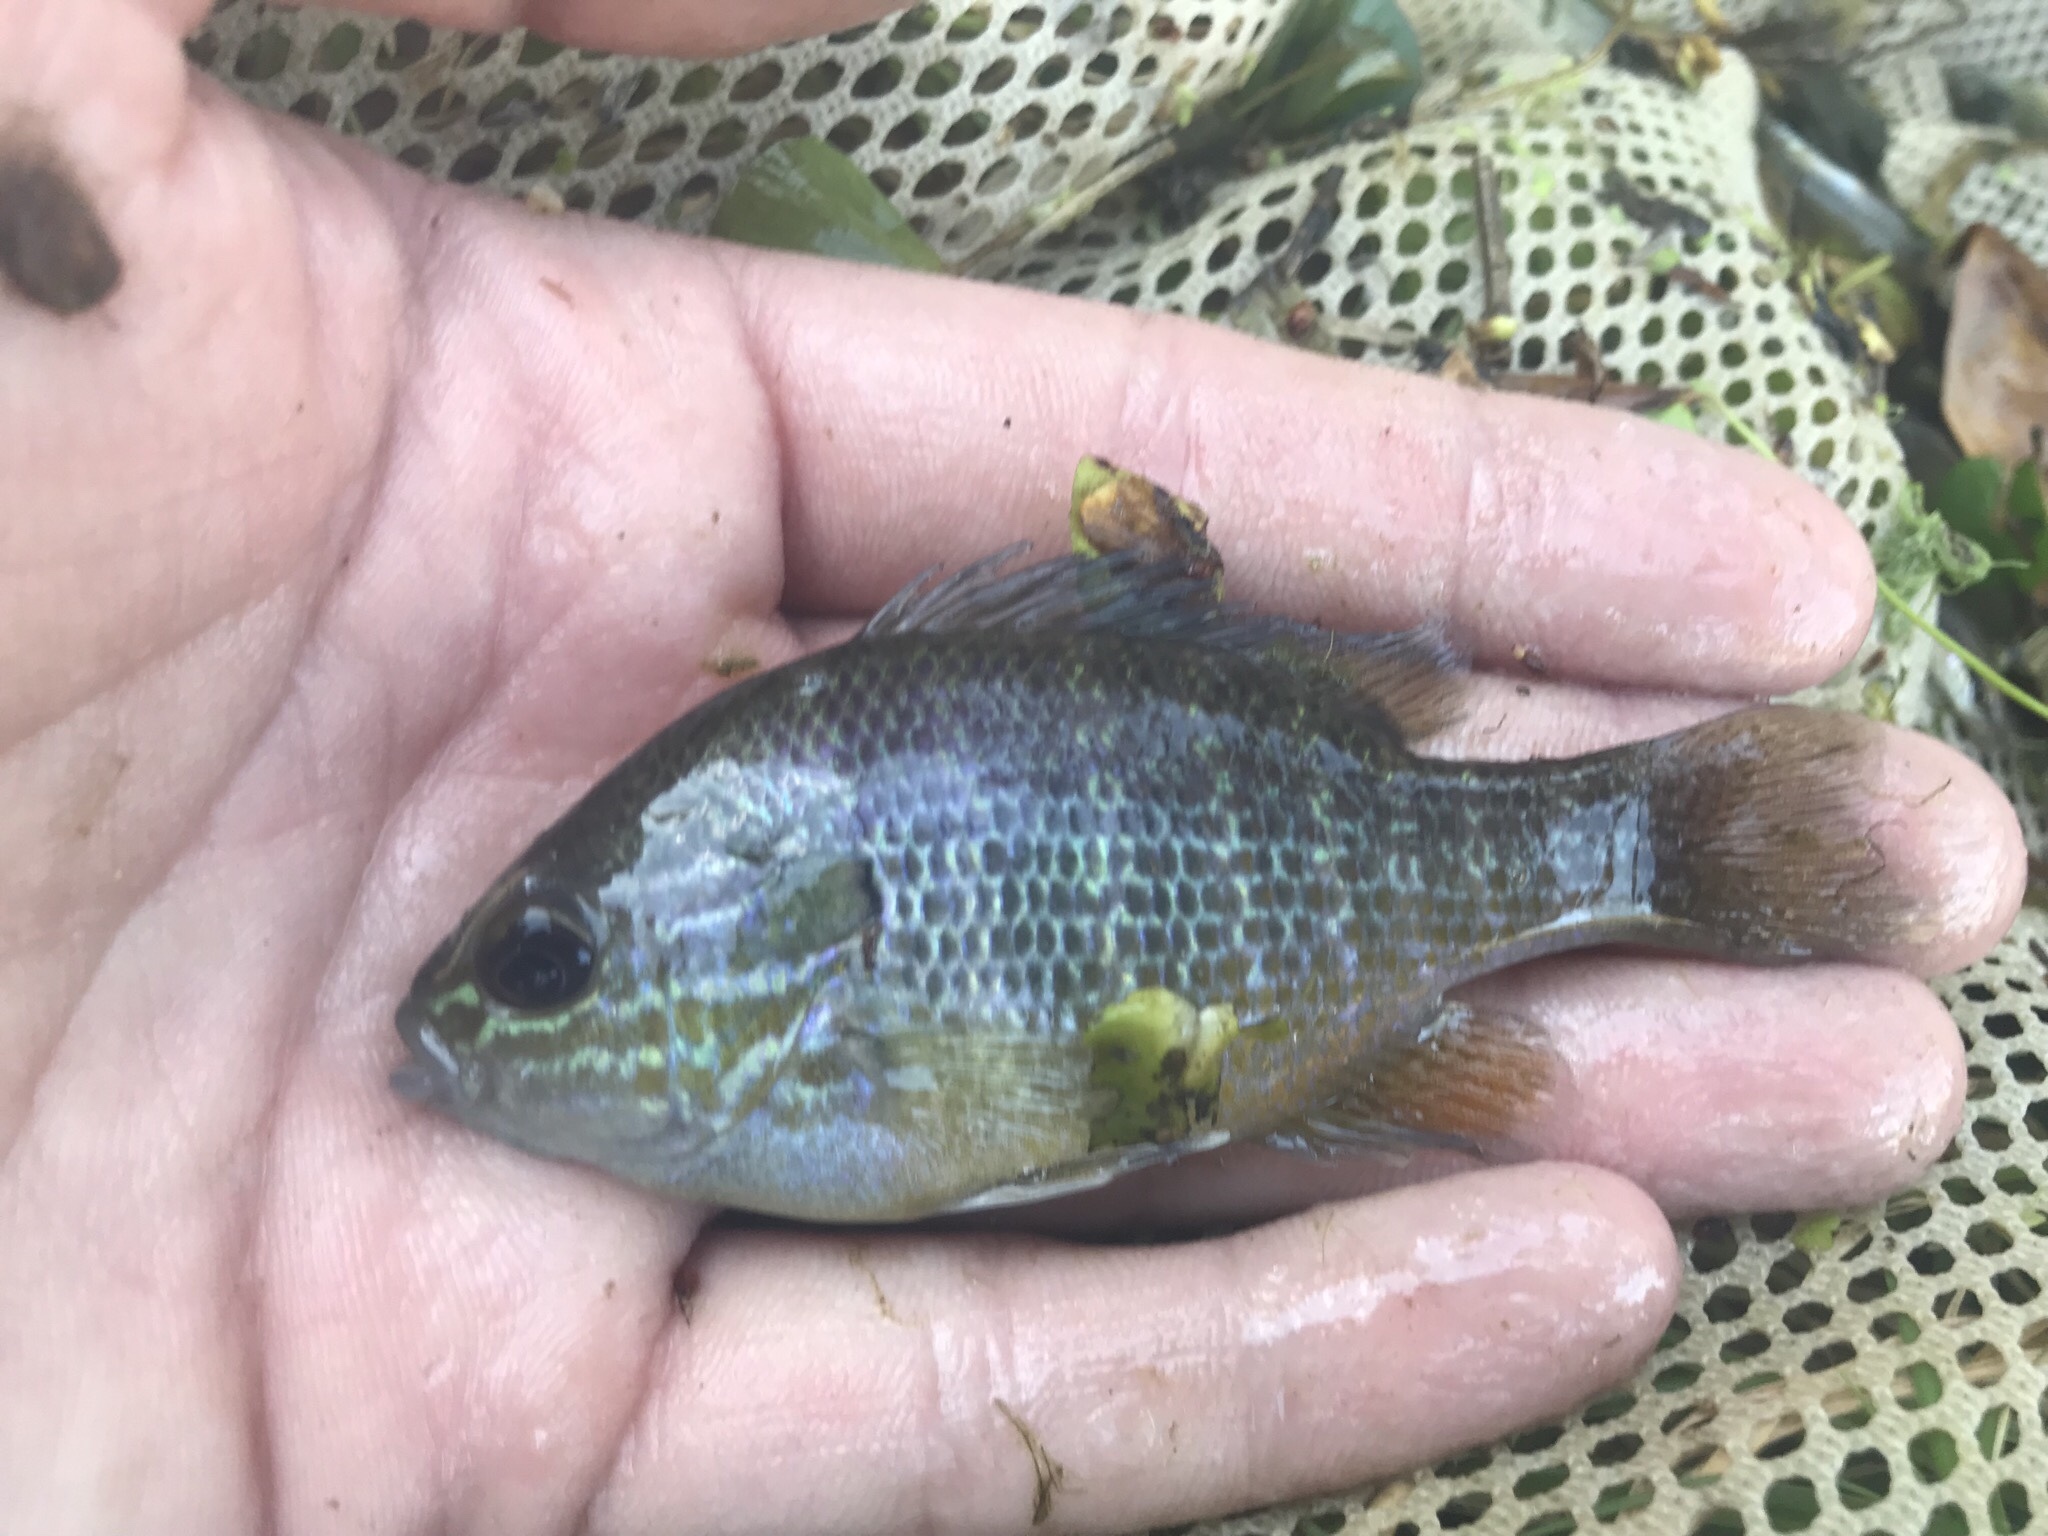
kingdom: Animalia
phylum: Chordata
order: Perciformes
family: Centrarchidae
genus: Lepomis
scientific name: Lepomis megalotis
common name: Longear sunfish
